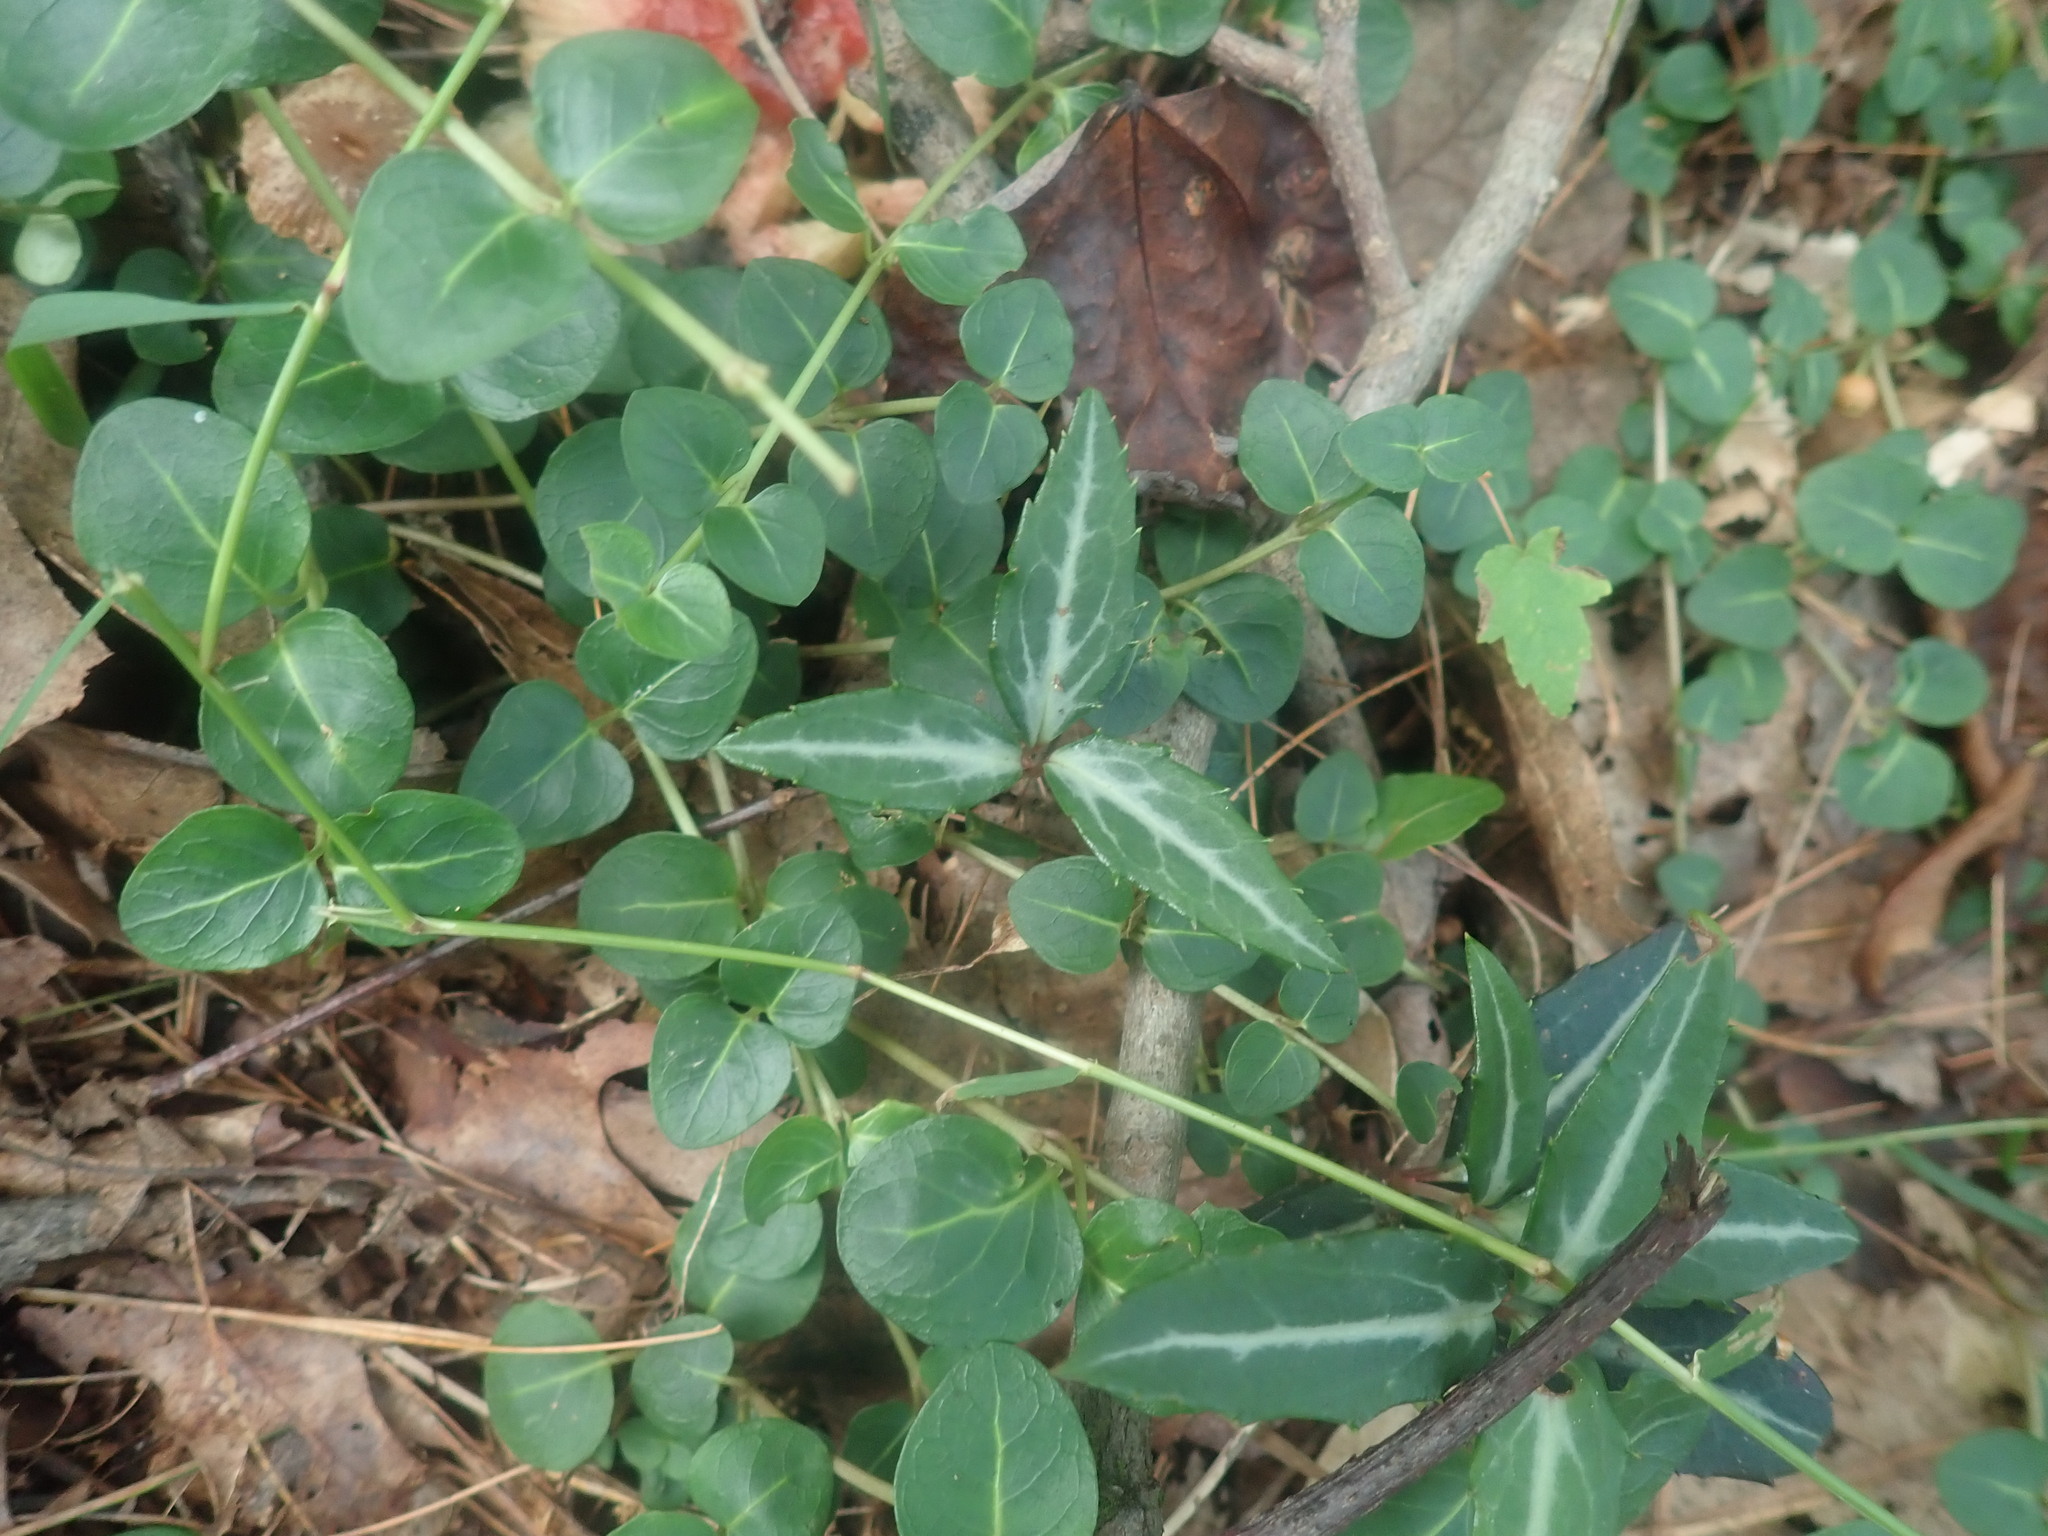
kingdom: Plantae
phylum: Tracheophyta
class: Magnoliopsida
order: Ericales
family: Ericaceae
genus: Chimaphila
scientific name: Chimaphila maculata
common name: Spotted pipsissewa
